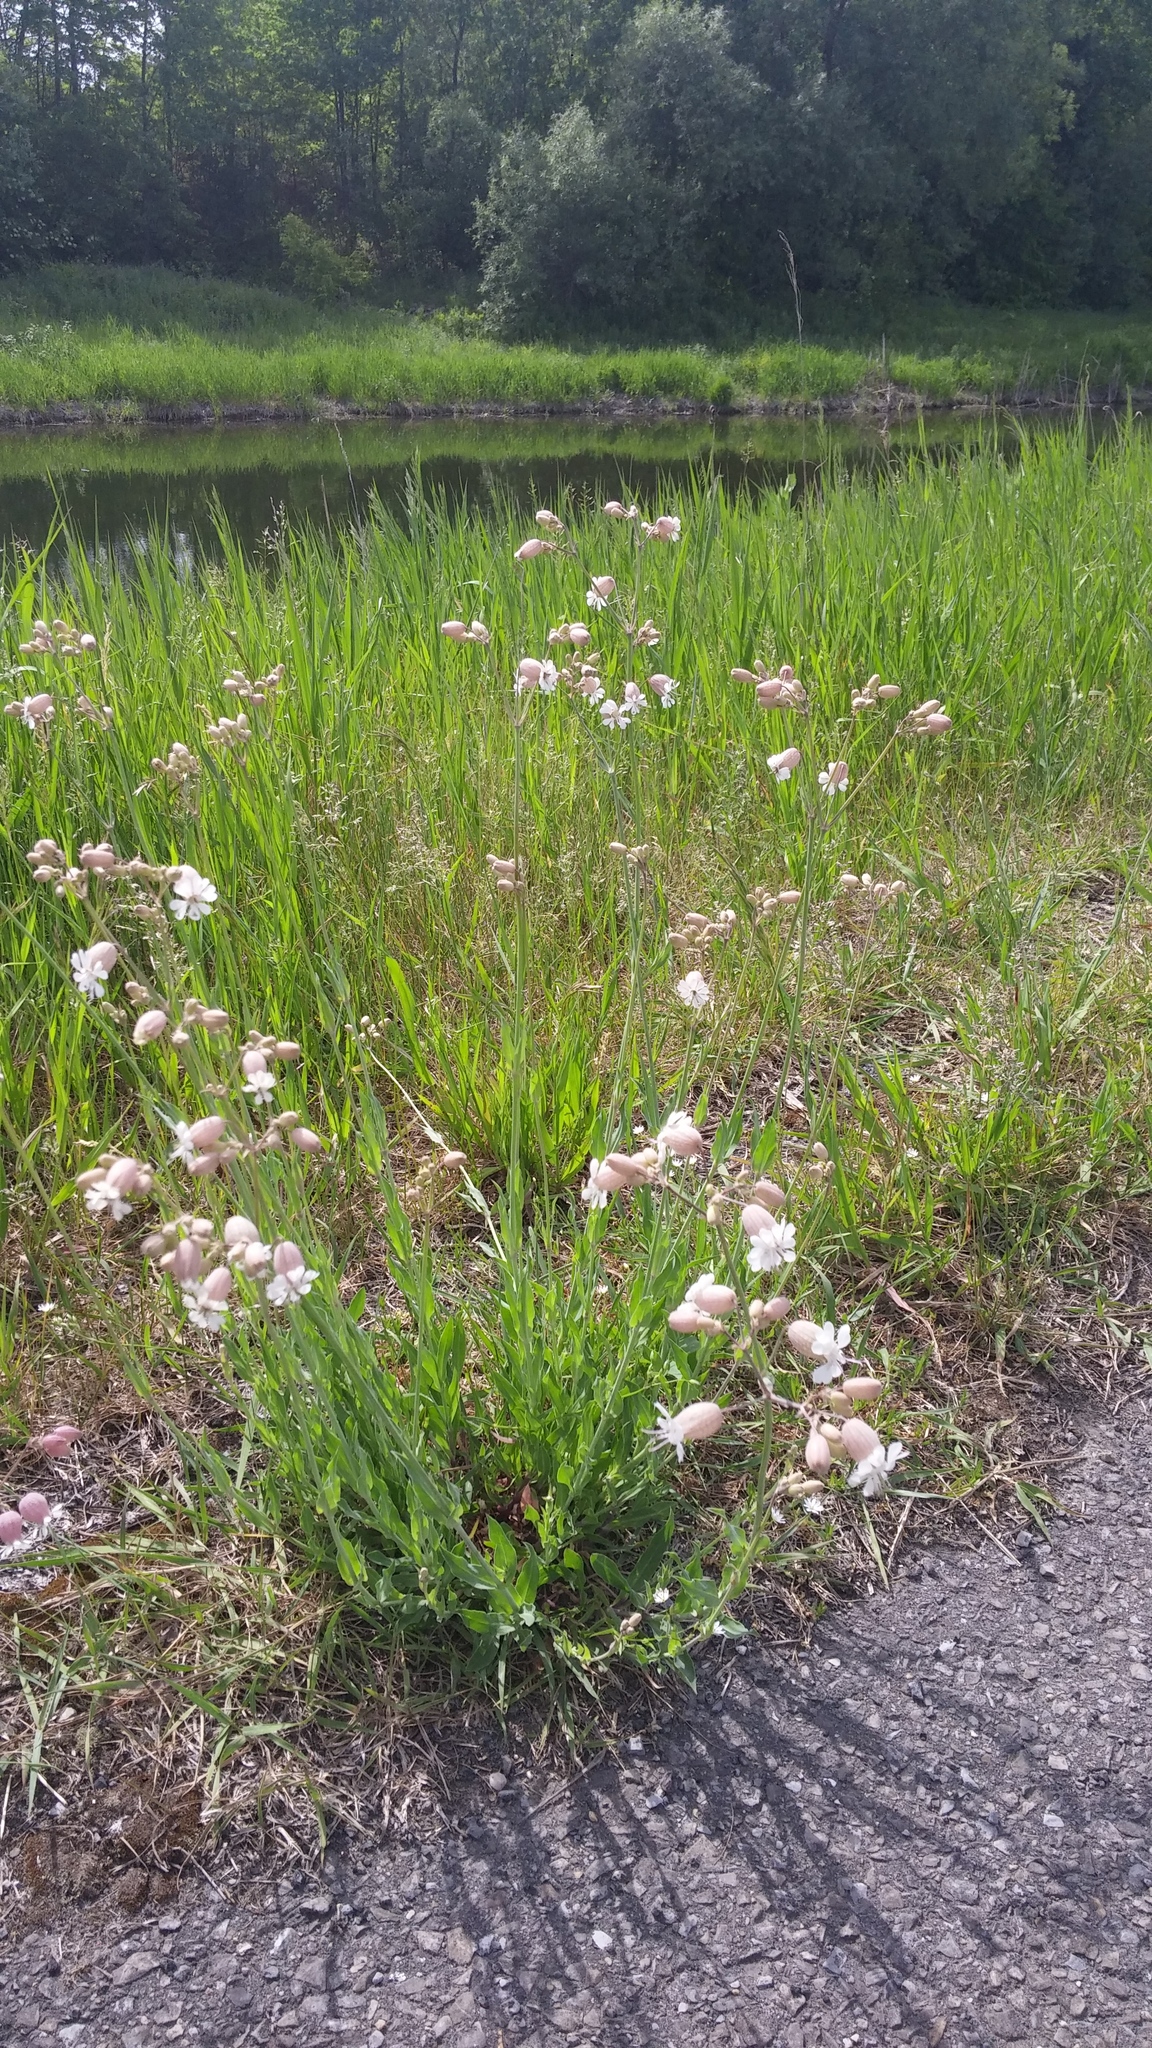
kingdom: Plantae
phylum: Tracheophyta
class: Magnoliopsida
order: Caryophyllales
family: Caryophyllaceae
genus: Silene
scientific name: Silene vulgaris
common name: Bladder campion
